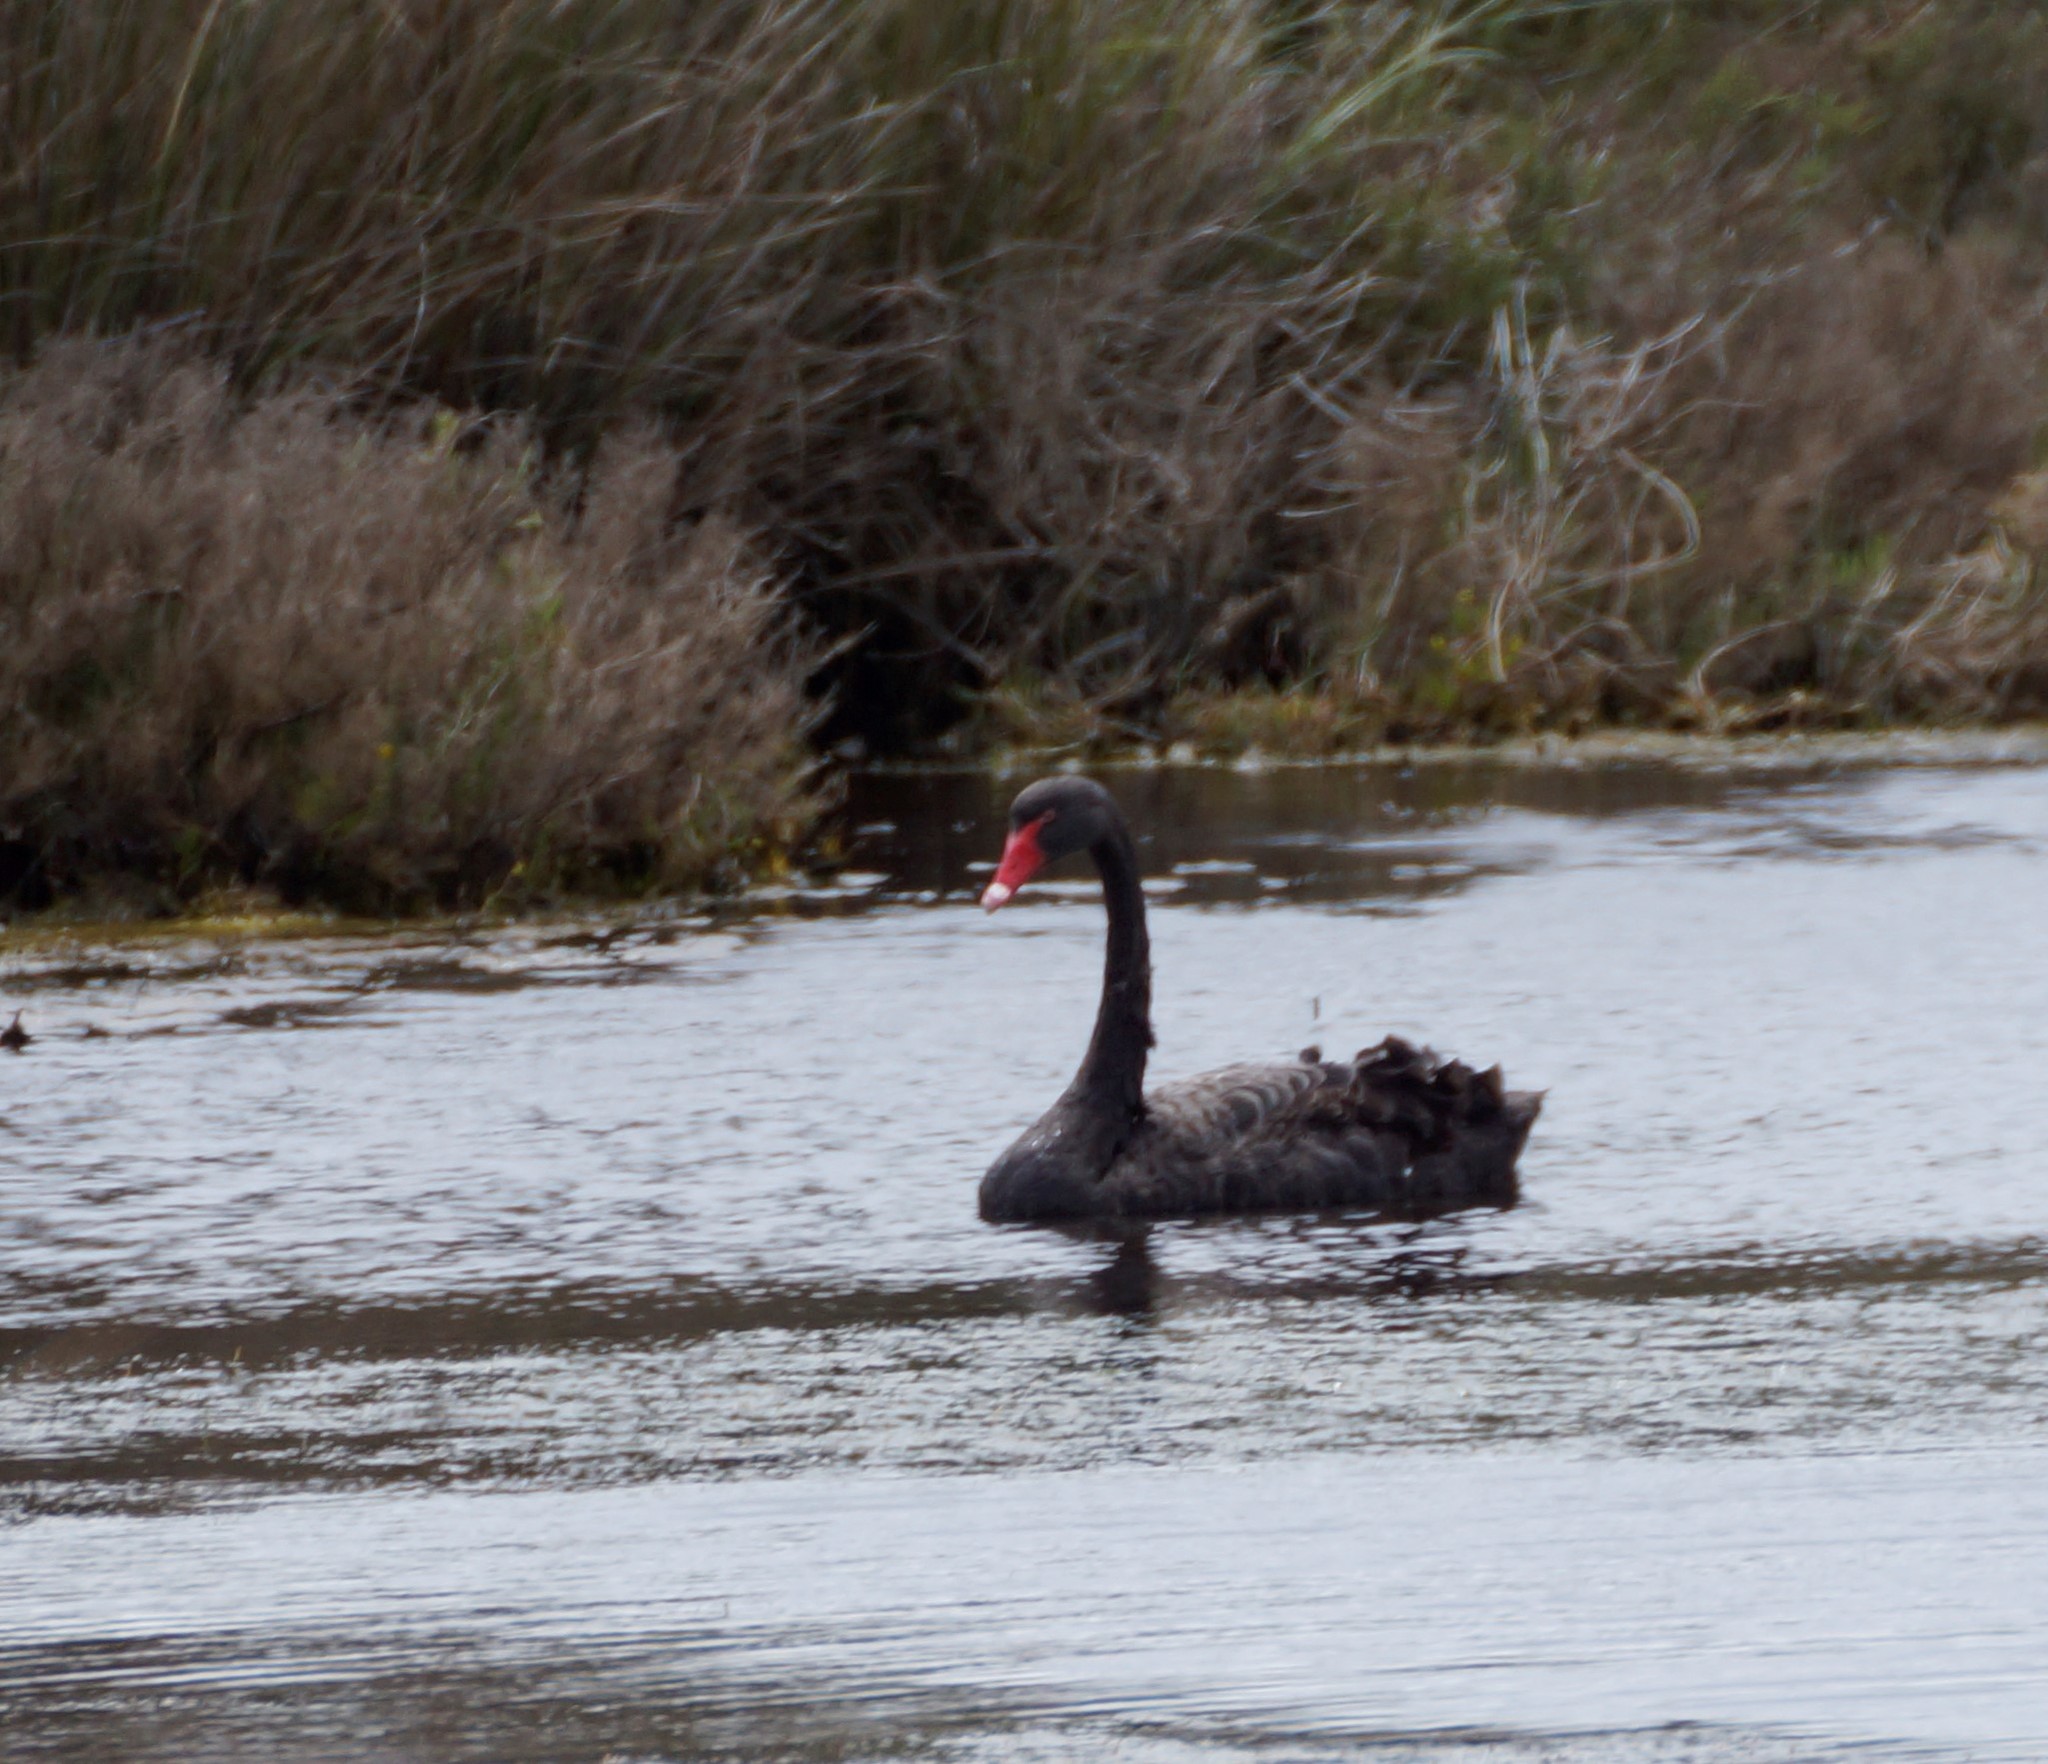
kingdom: Animalia
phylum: Chordata
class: Aves
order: Anseriformes
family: Anatidae
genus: Cygnus
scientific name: Cygnus atratus
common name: Black swan
